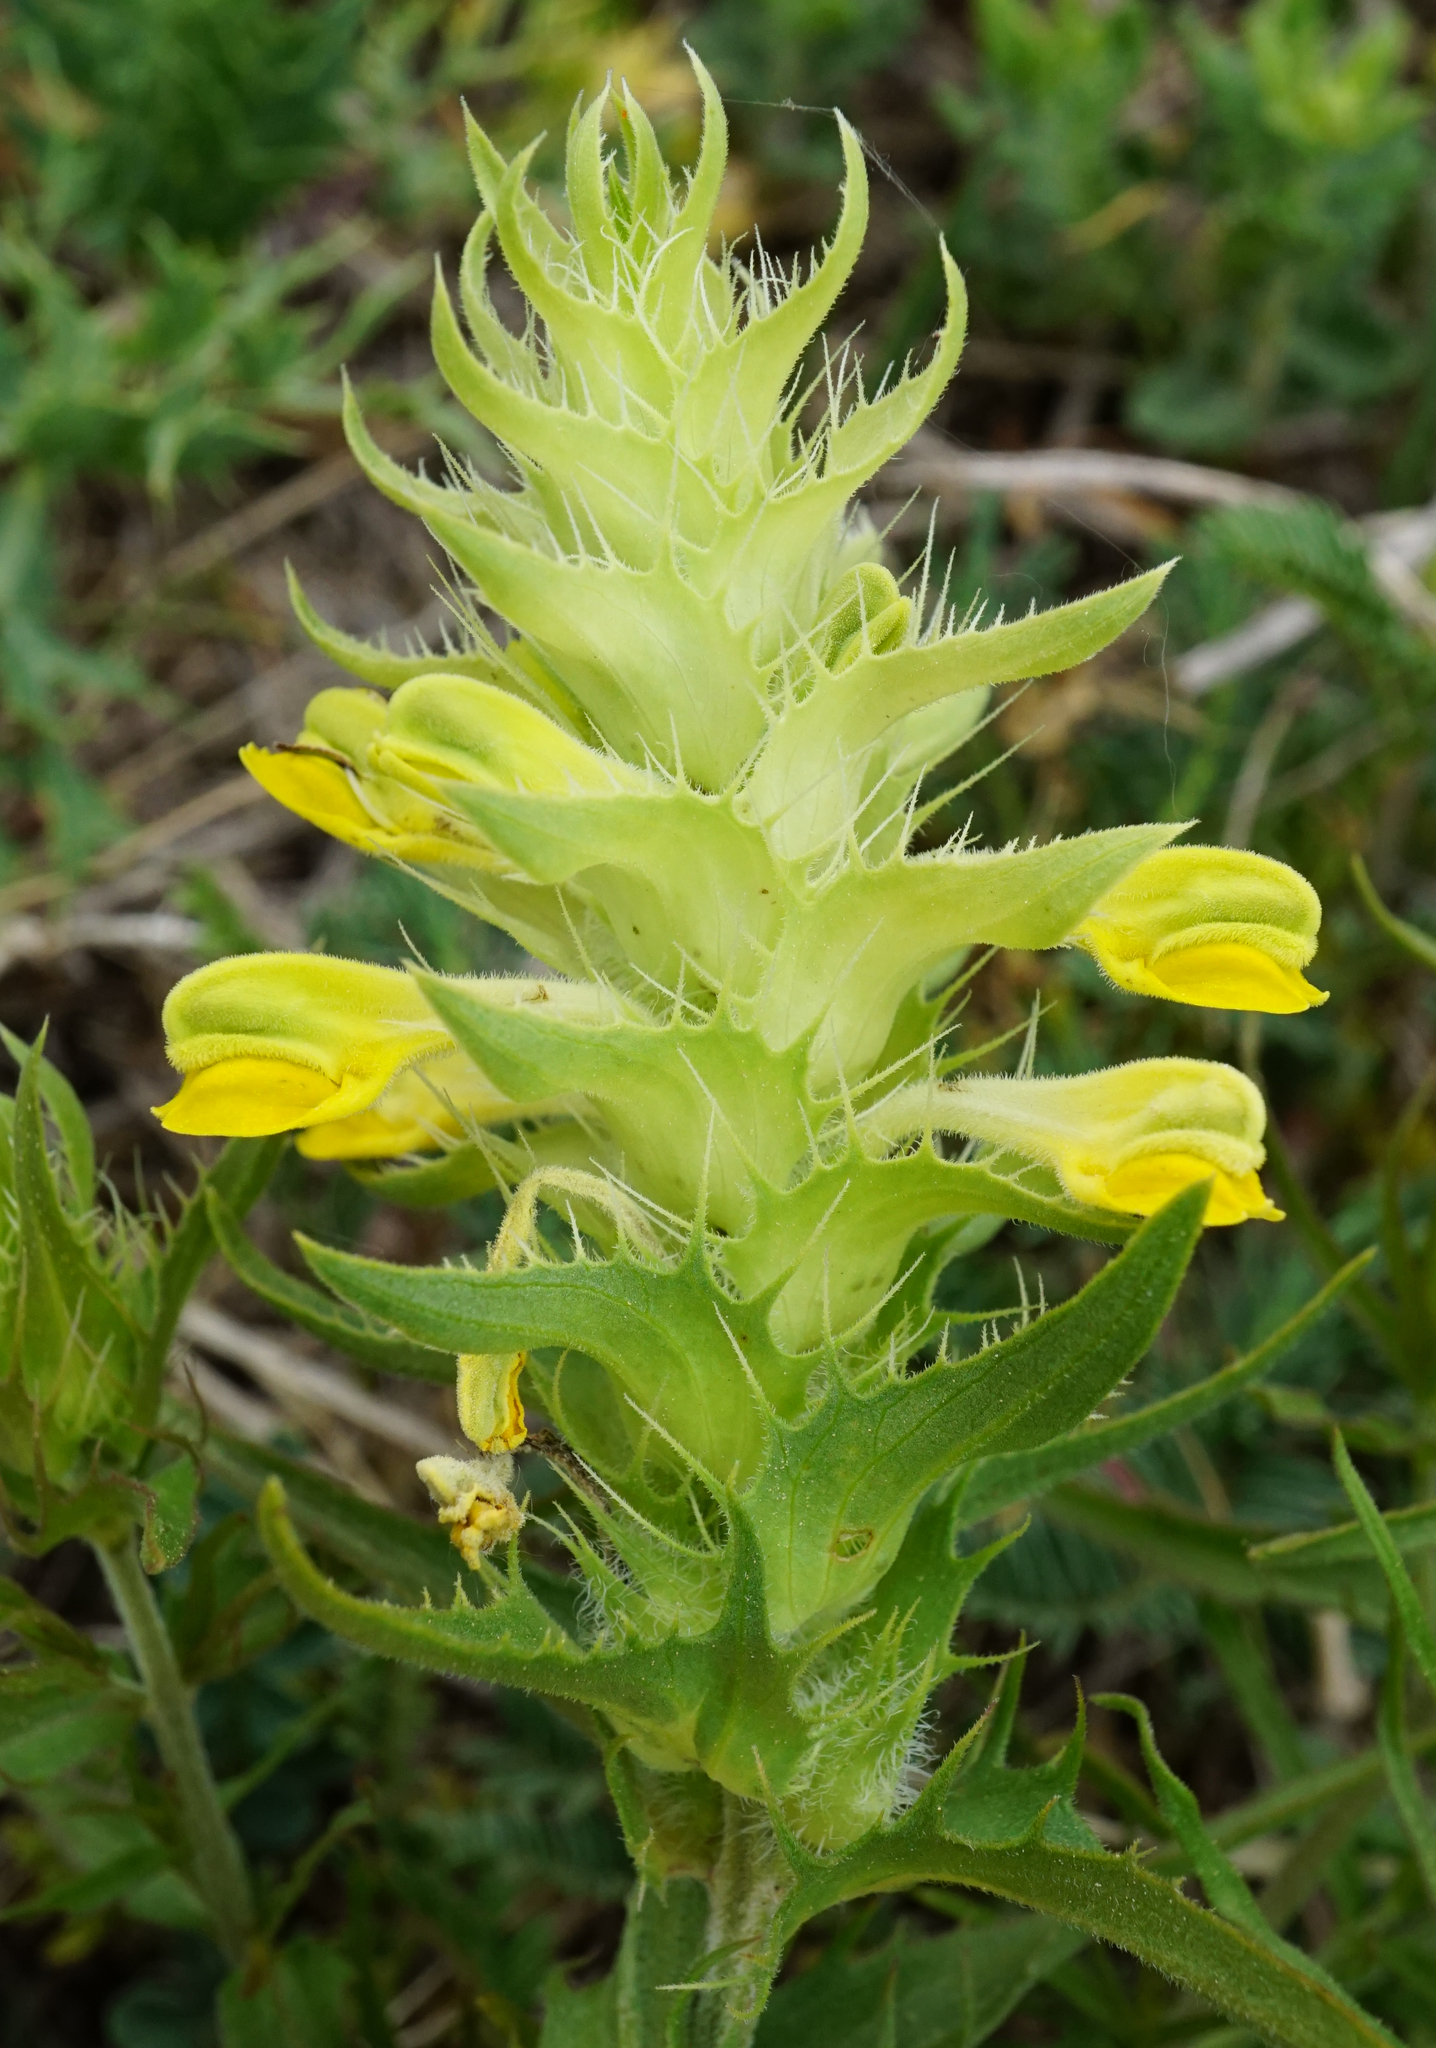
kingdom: Plantae
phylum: Tracheophyta
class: Magnoliopsida
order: Lamiales
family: Orobanchaceae
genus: Melampyrum
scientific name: Melampyrum barbatum
